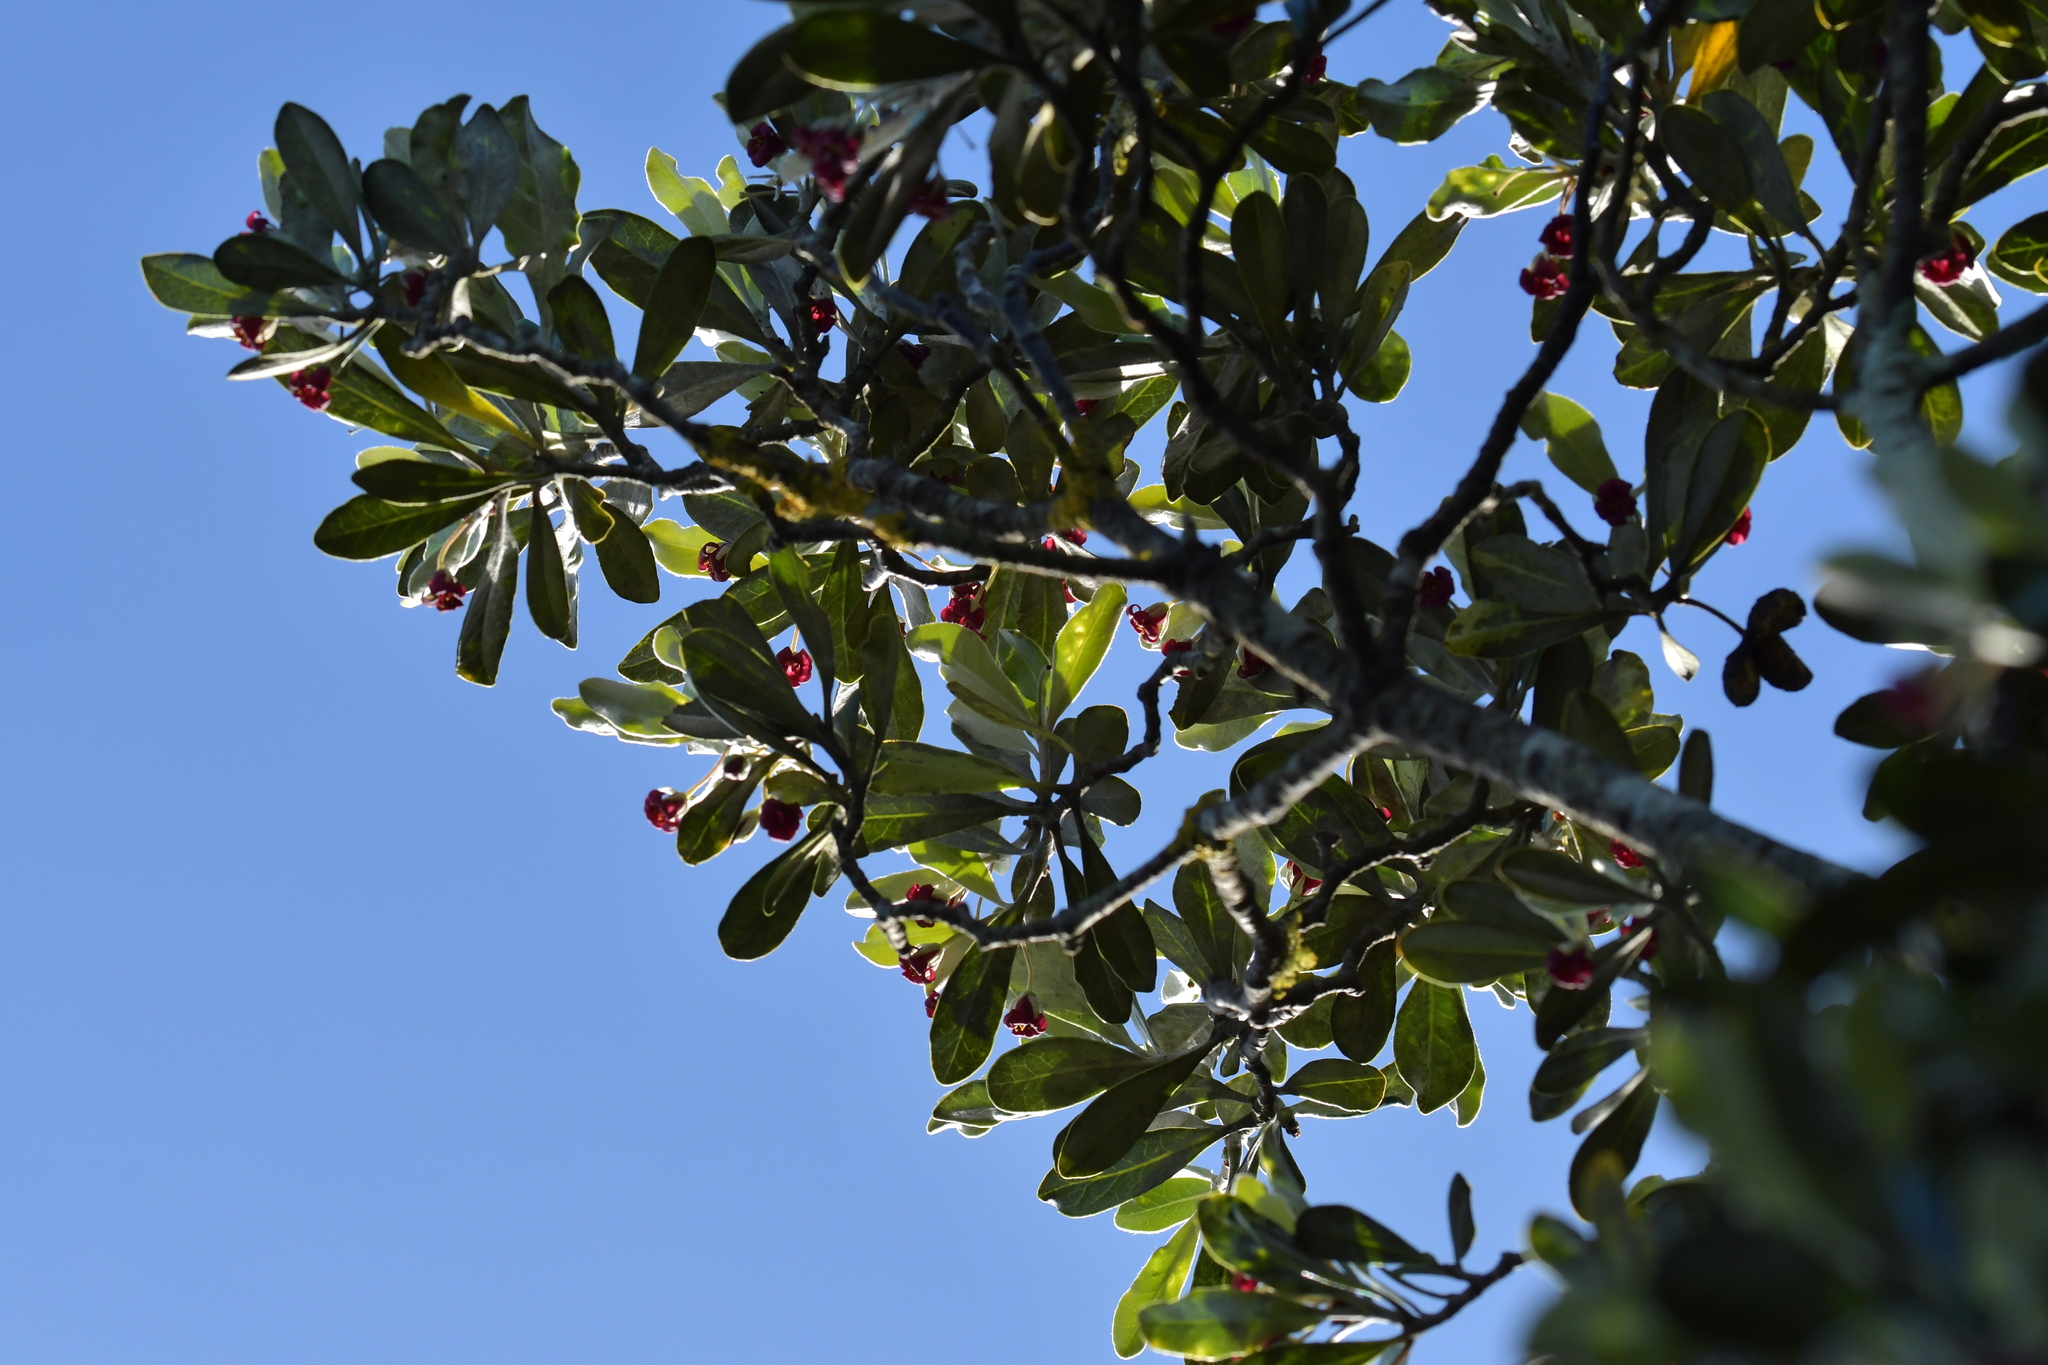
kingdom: Plantae
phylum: Tracheophyta
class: Magnoliopsida
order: Apiales
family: Pittosporaceae
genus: Pittosporum
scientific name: Pittosporum crassifolium
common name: Karo
